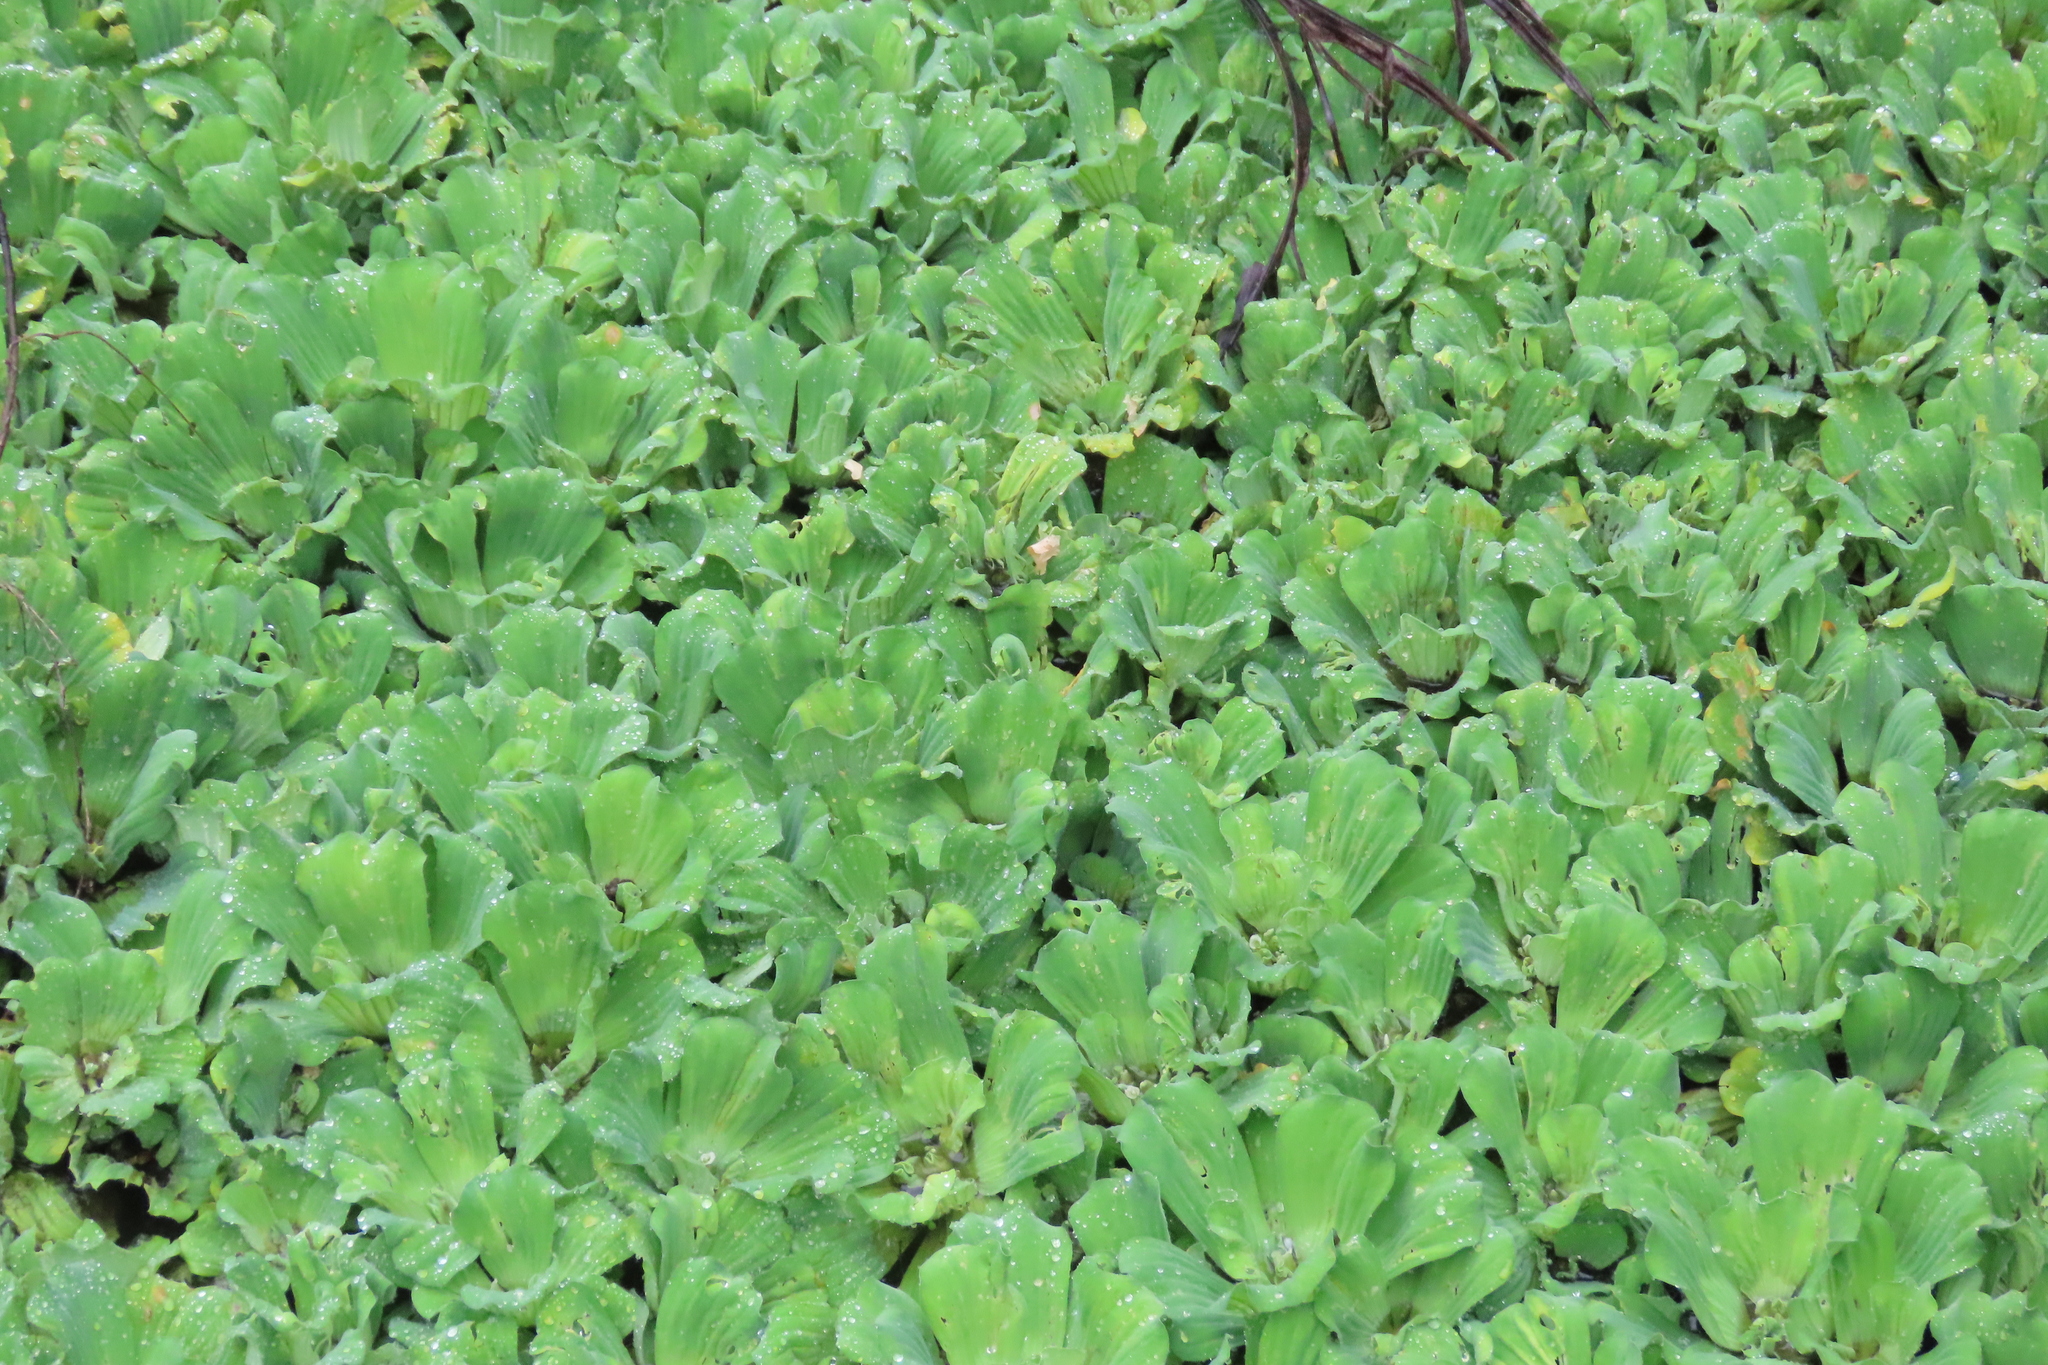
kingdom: Plantae
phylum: Tracheophyta
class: Liliopsida
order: Alismatales
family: Araceae
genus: Pistia
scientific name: Pistia stratiotes
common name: Water lettuce
